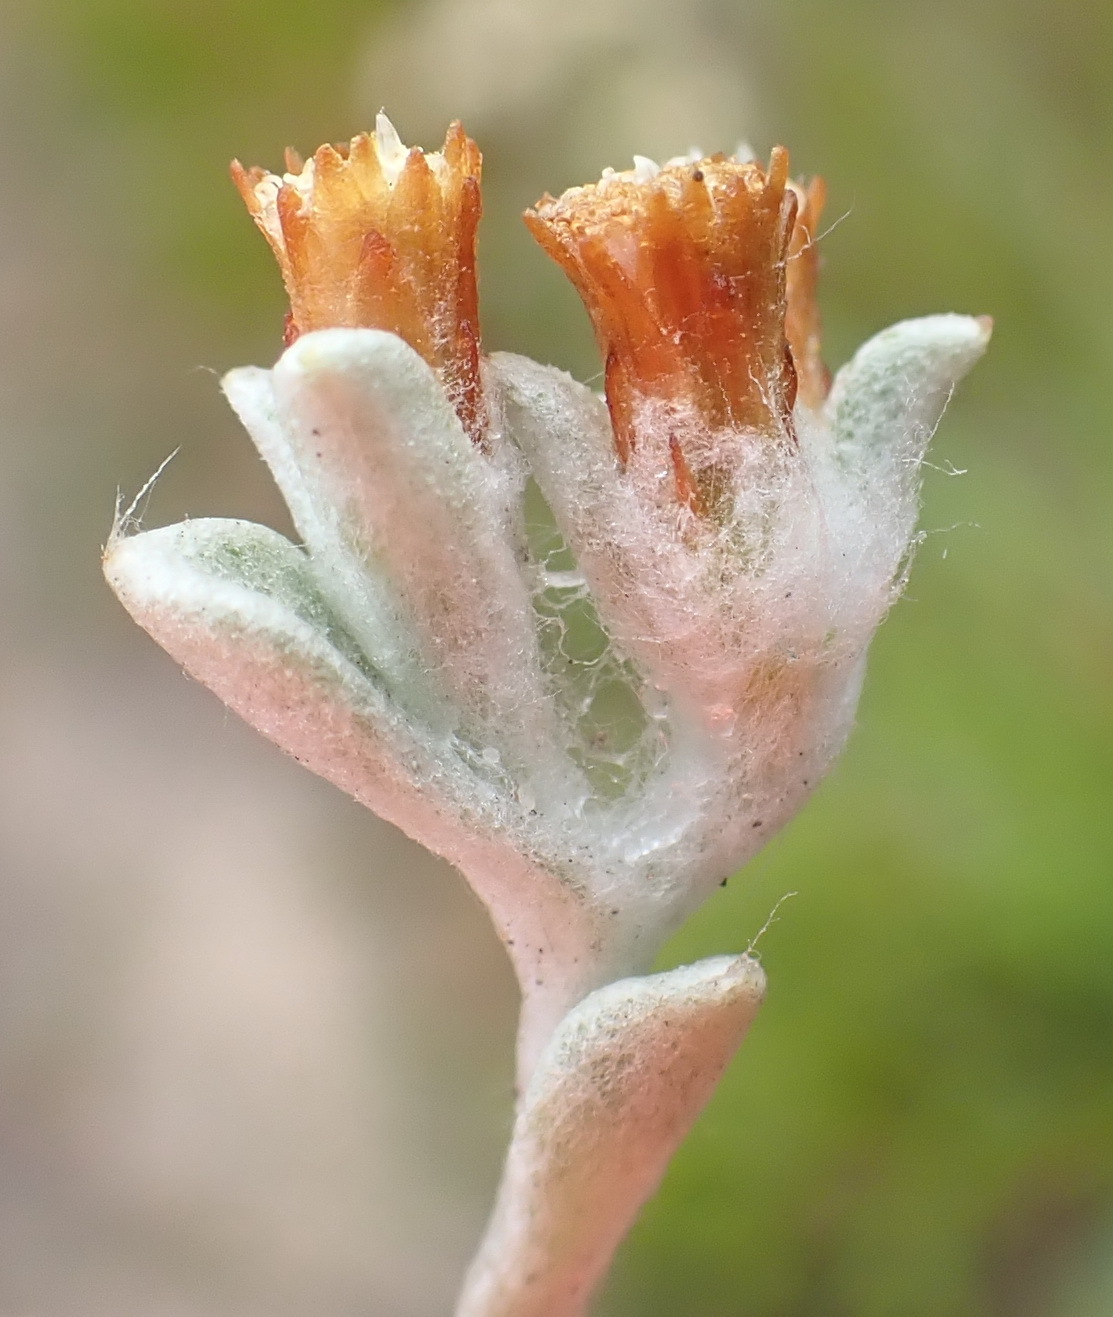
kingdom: Plantae
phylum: Tracheophyta
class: Magnoliopsida
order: Asterales
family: Asteraceae
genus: Helichrysum
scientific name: Helichrysum litorale
